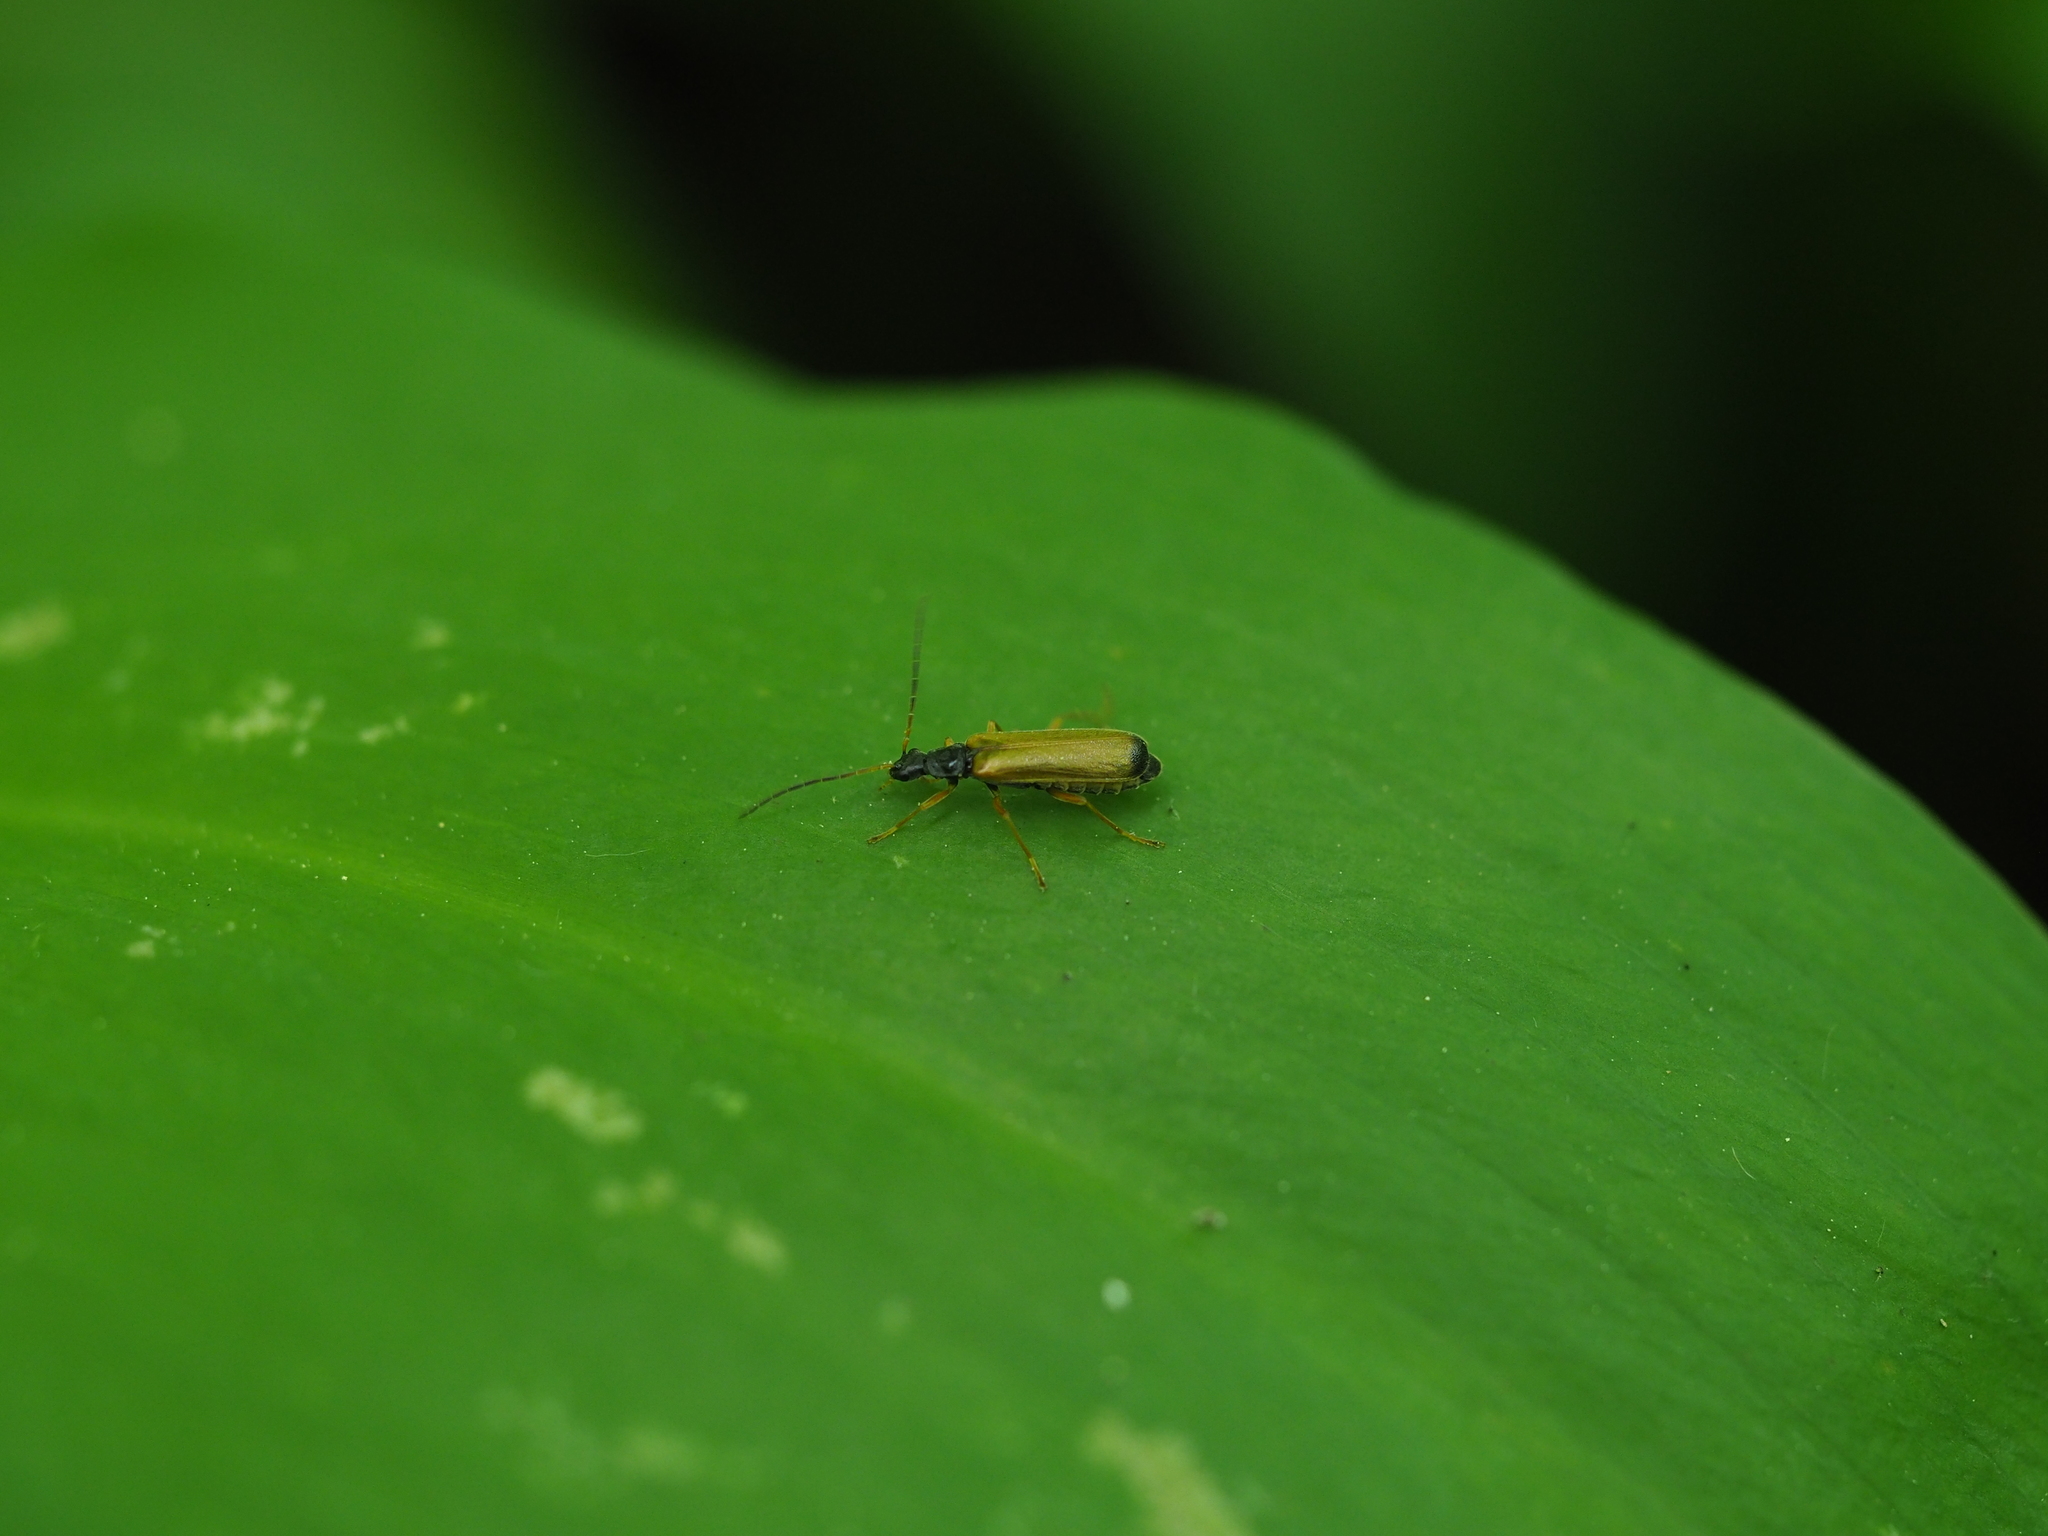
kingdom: Animalia
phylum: Arthropoda
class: Insecta
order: Coleoptera
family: Cantharidae
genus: Rhagonycha
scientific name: Rhagonycha lignosa
